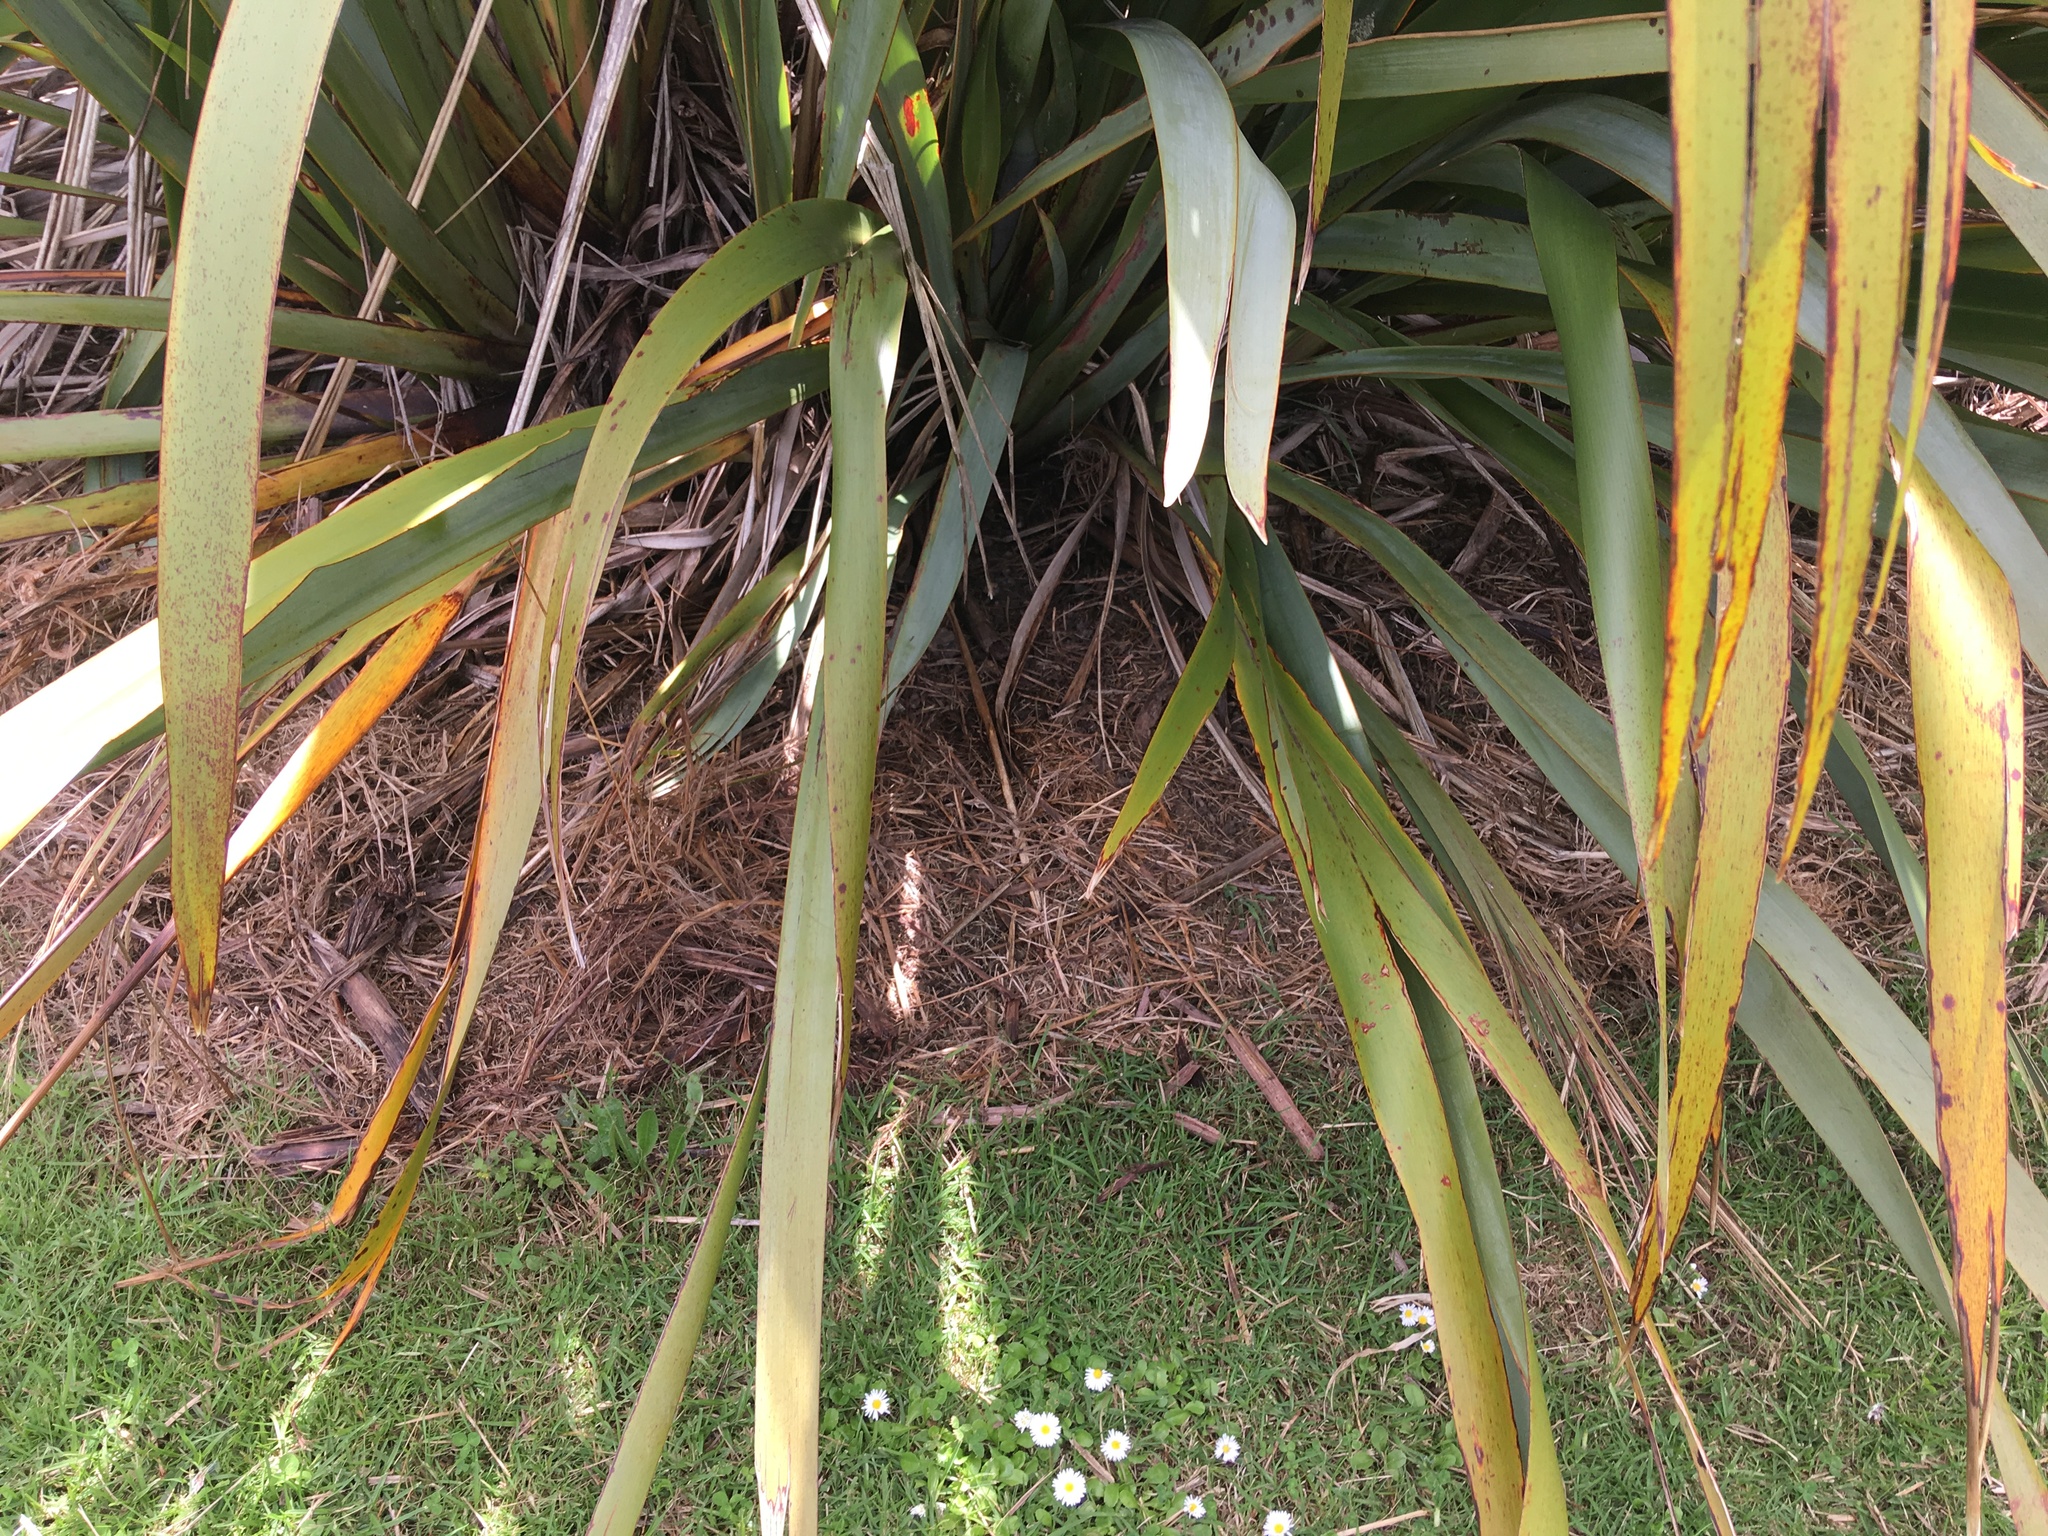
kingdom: Plantae
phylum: Tracheophyta
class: Liliopsida
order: Poales
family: Poaceae
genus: Cenchrus
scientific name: Cenchrus clandestinus
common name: Kikuyugrass
